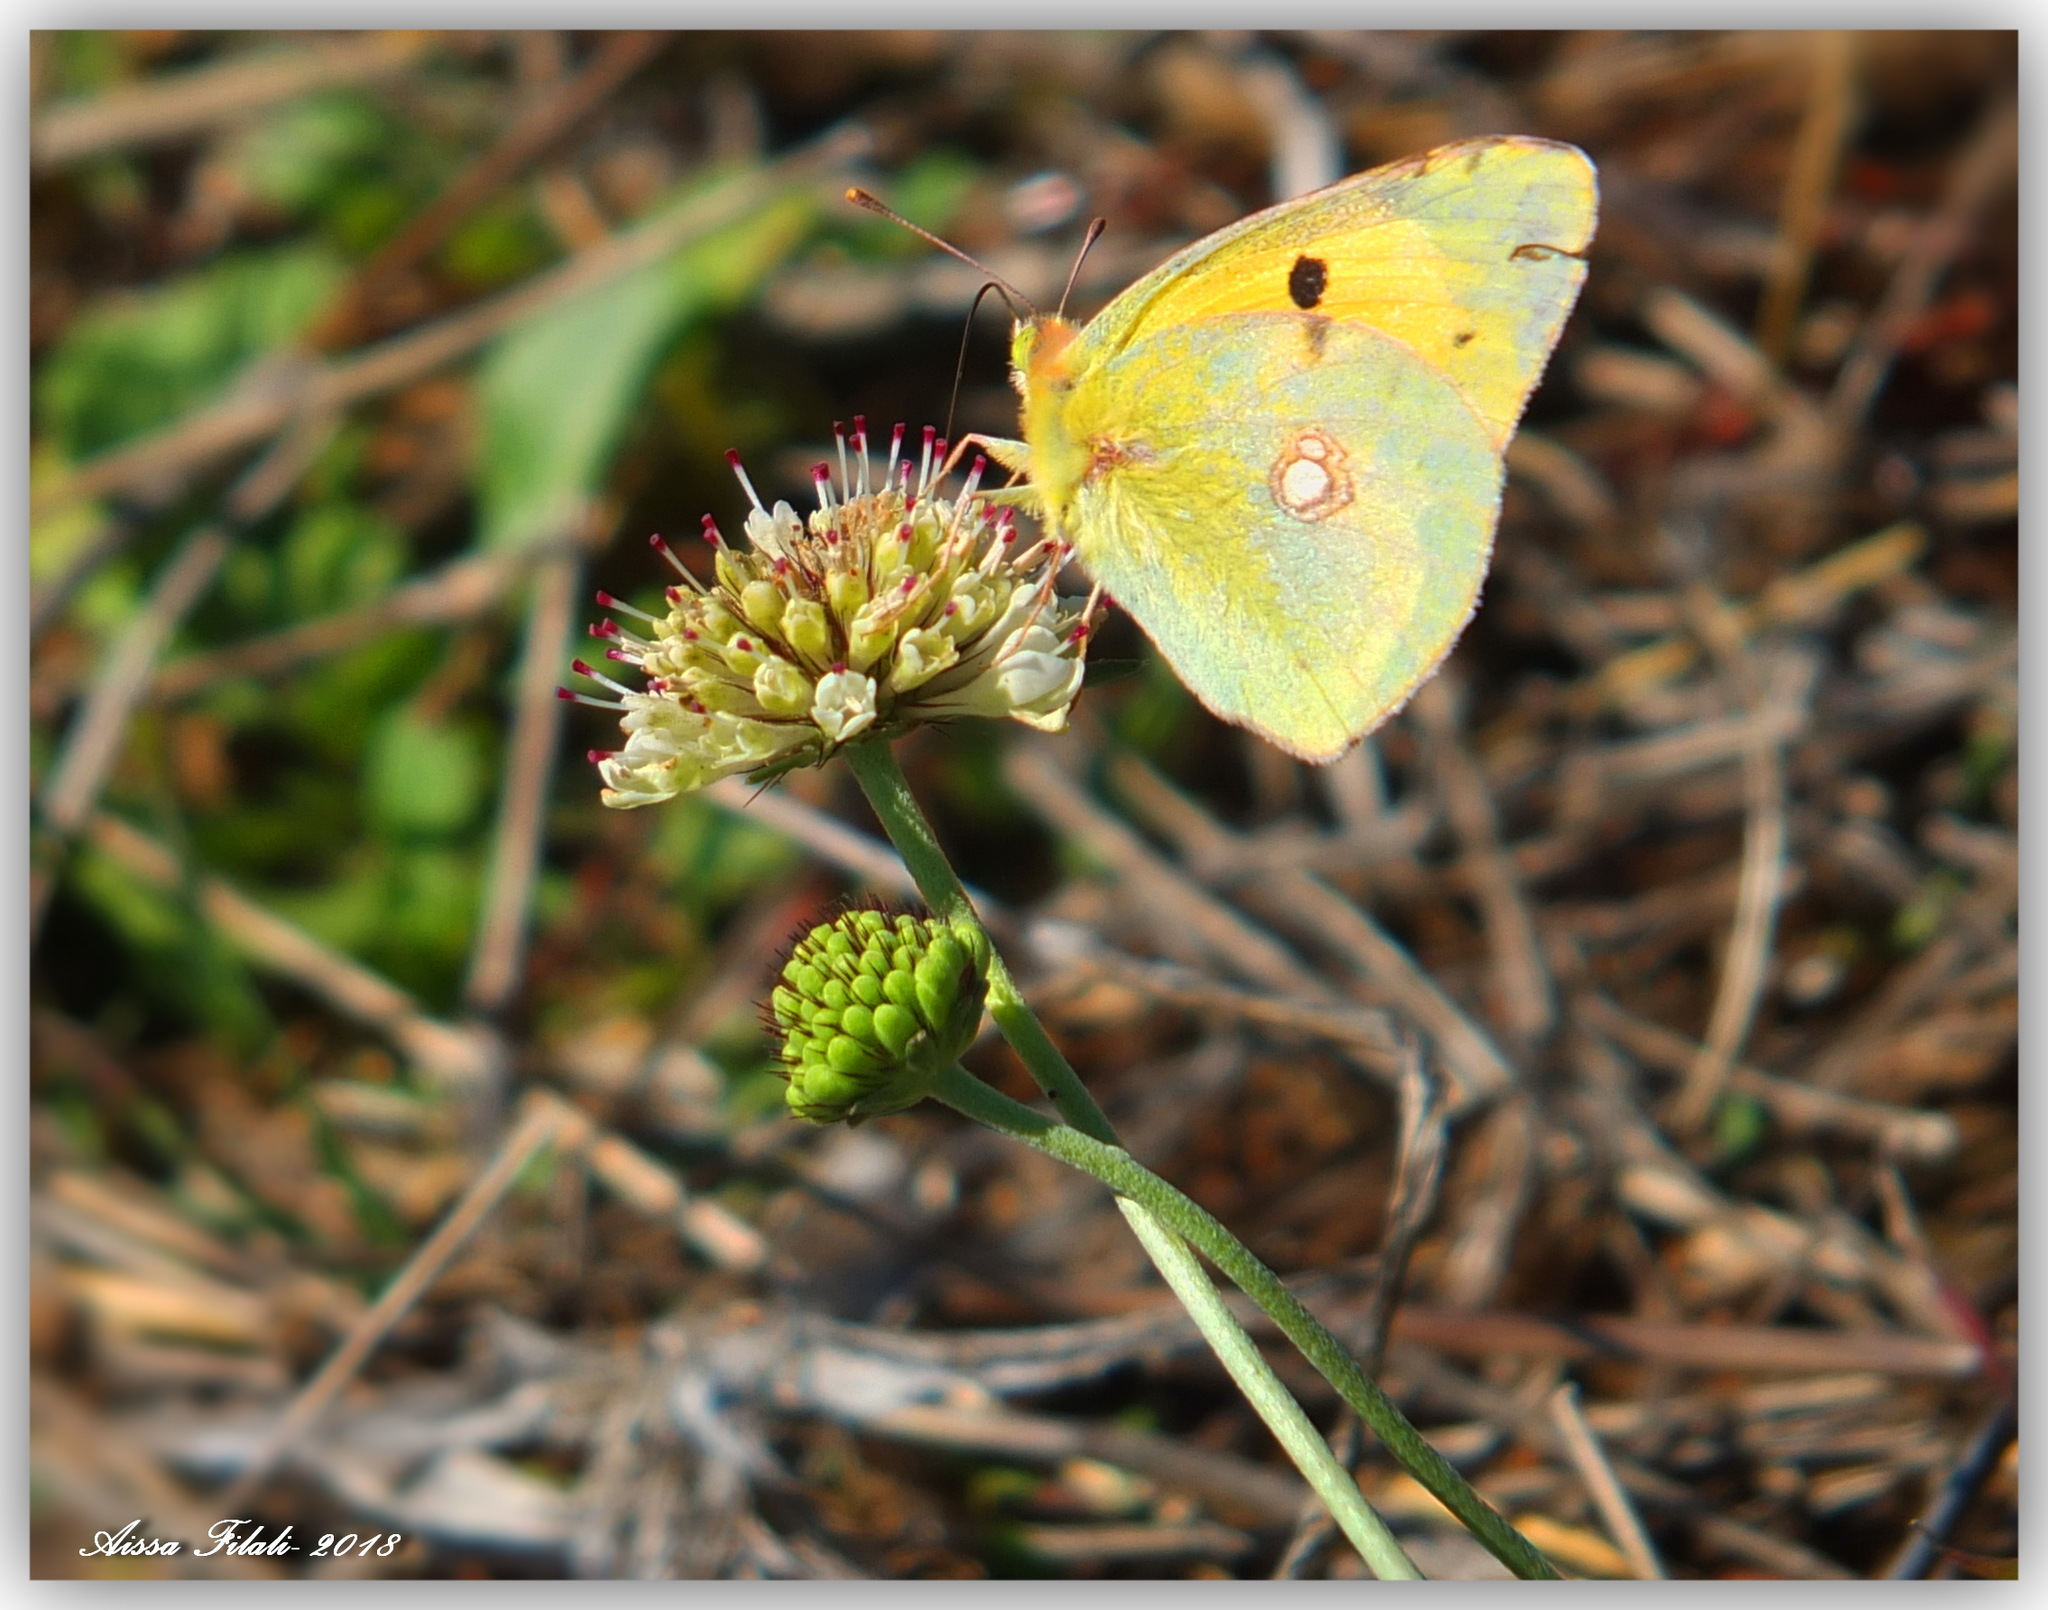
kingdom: Animalia
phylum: Arthropoda
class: Insecta
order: Lepidoptera
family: Pieridae
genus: Colias
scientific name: Colias croceus
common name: Clouded yellow
